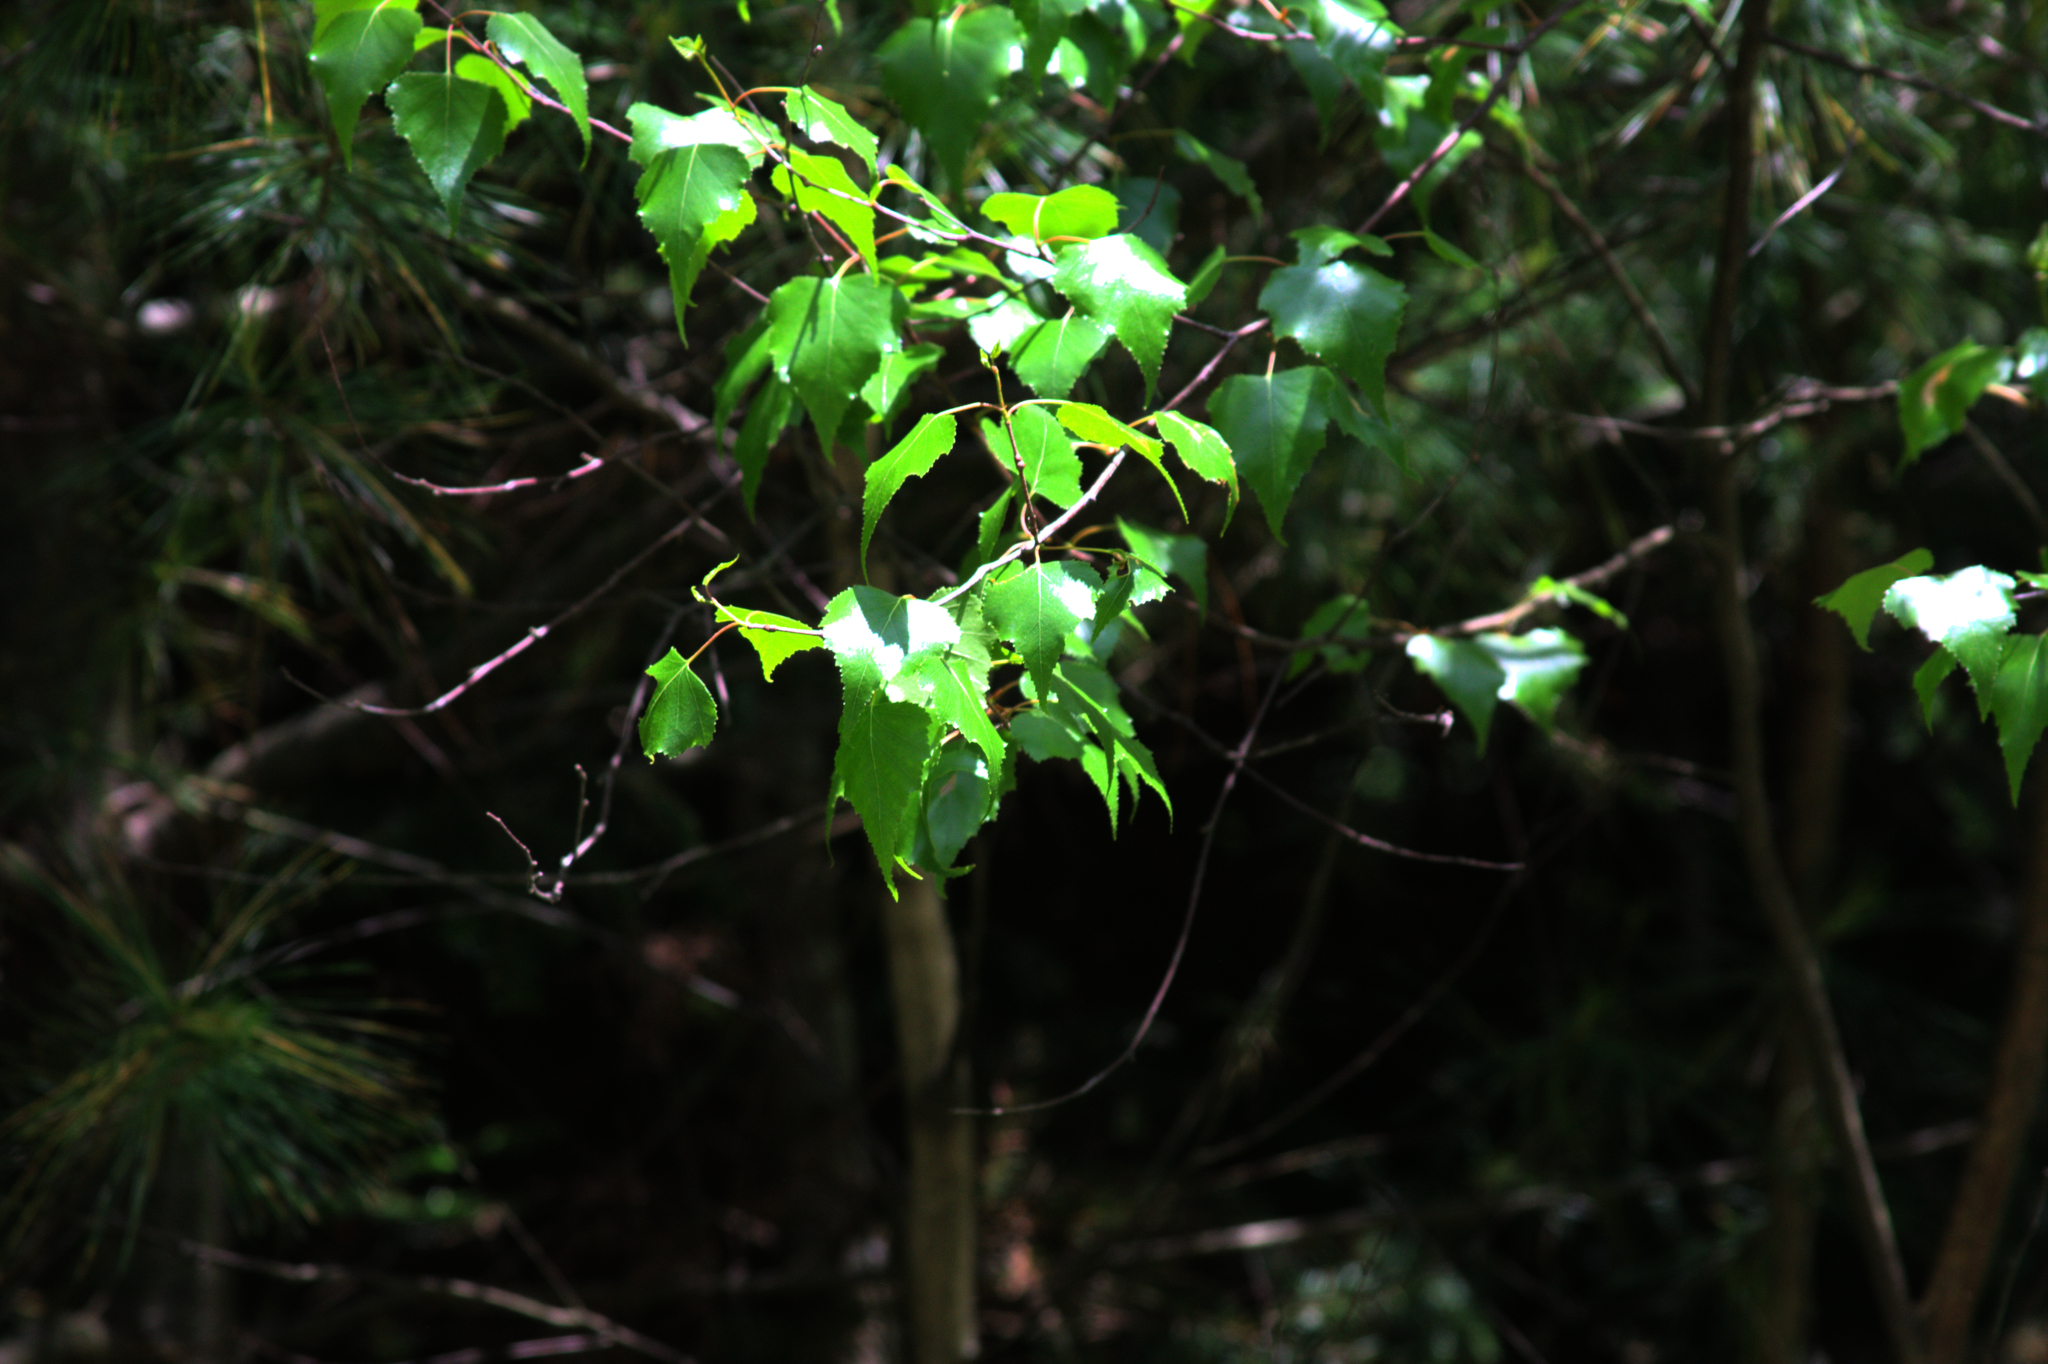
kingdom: Plantae
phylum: Tracheophyta
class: Magnoliopsida
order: Fagales
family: Betulaceae
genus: Betula
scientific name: Betula populifolia
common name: Fire birch
